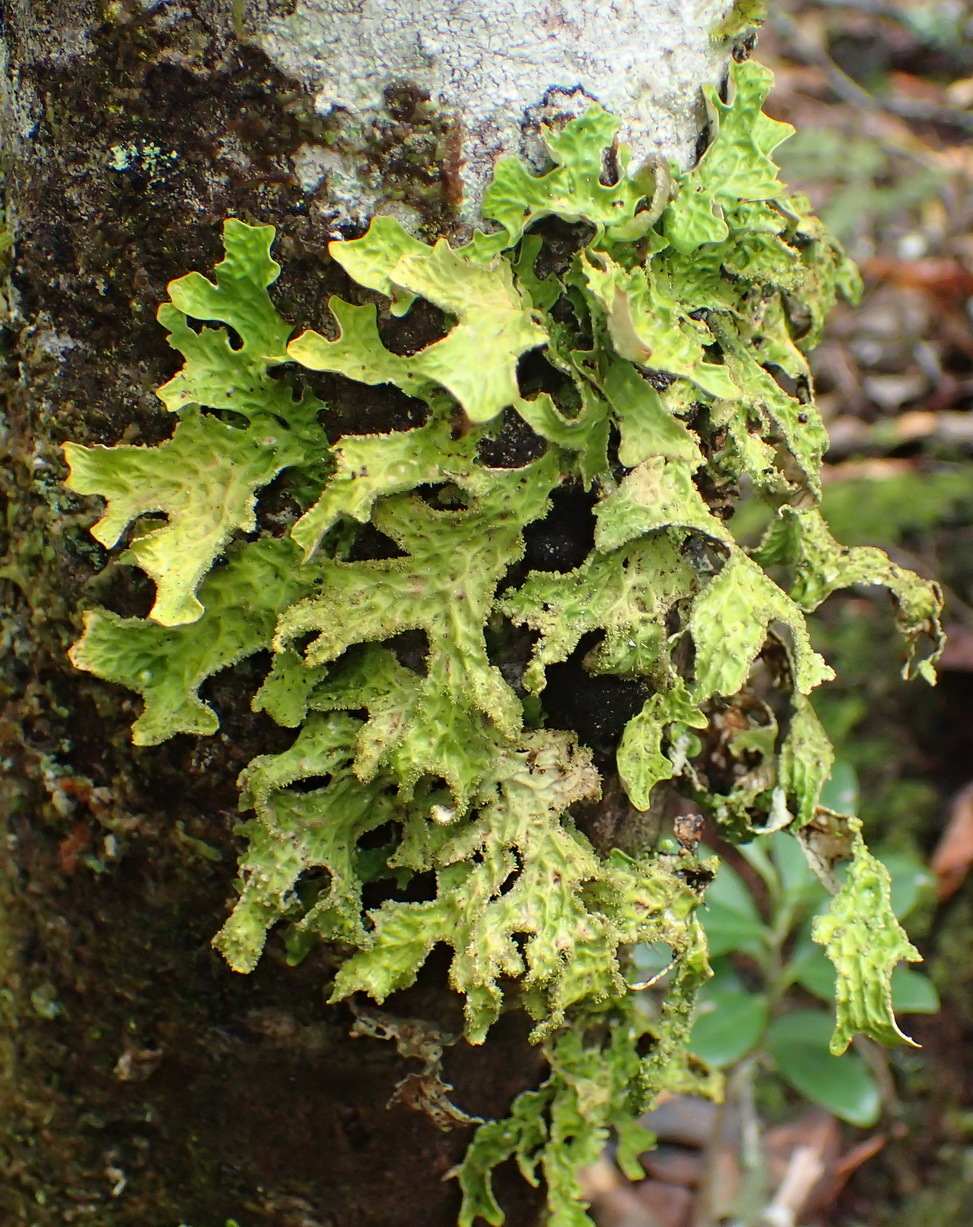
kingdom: Fungi
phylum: Ascomycota
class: Lecanoromycetes
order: Peltigerales
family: Lobariaceae
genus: Lobaria
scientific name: Lobaria pulmonaria
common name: Lungwort
